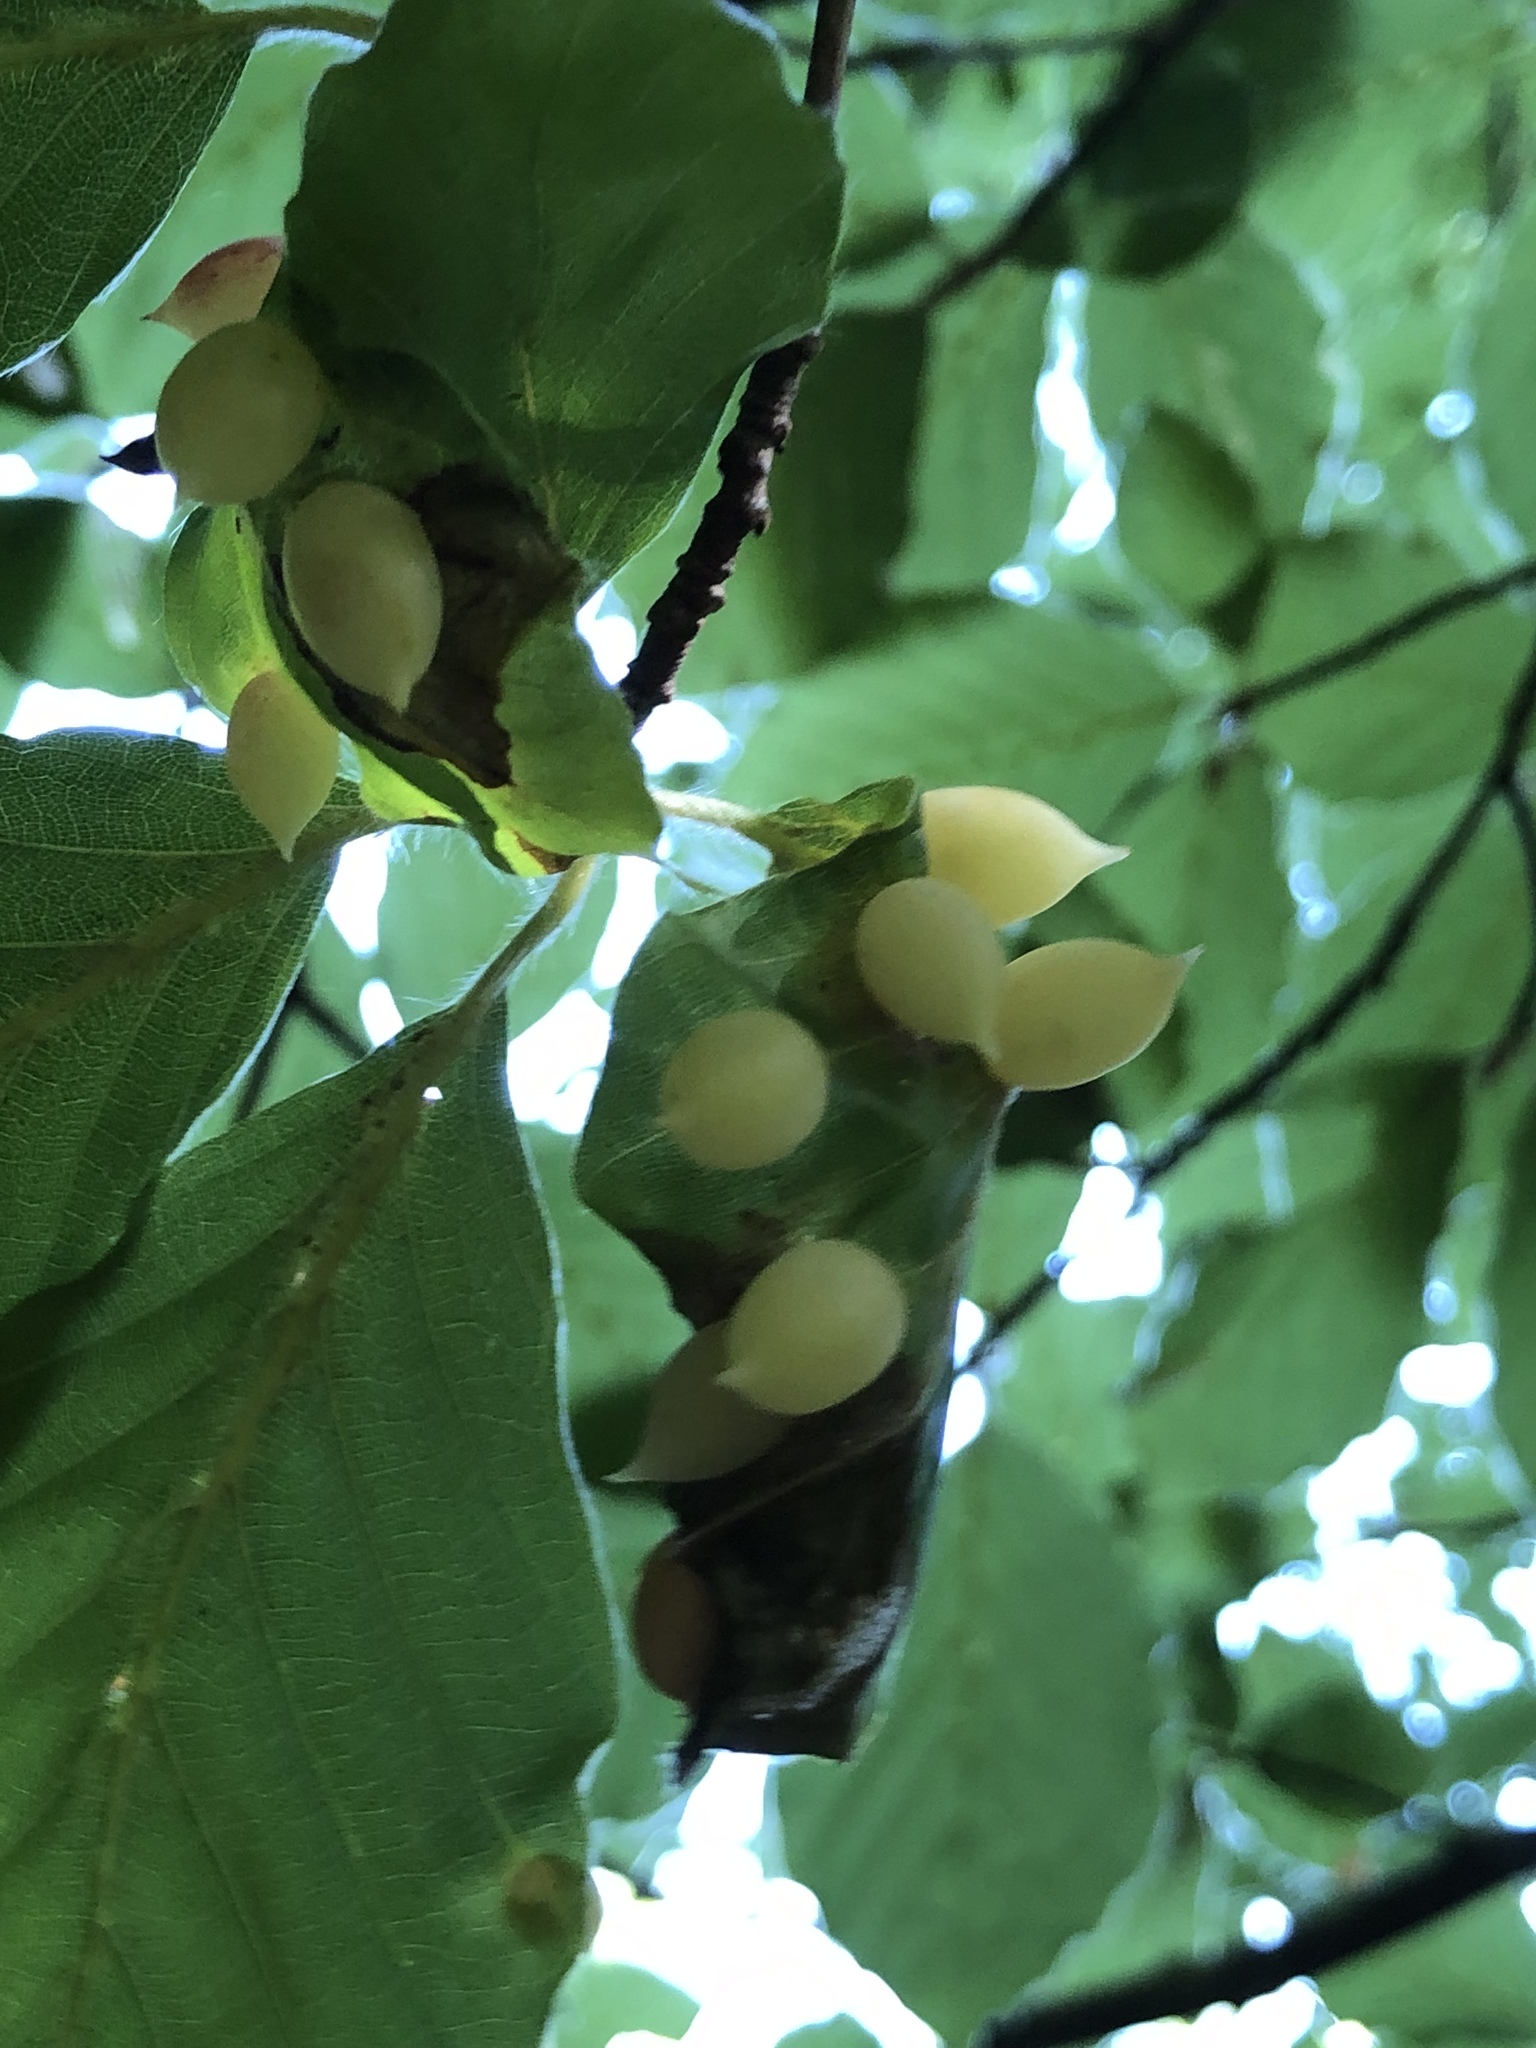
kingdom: Animalia
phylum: Arthropoda
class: Insecta
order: Diptera
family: Cecidomyiidae
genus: Mikiola
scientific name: Mikiola fagi
